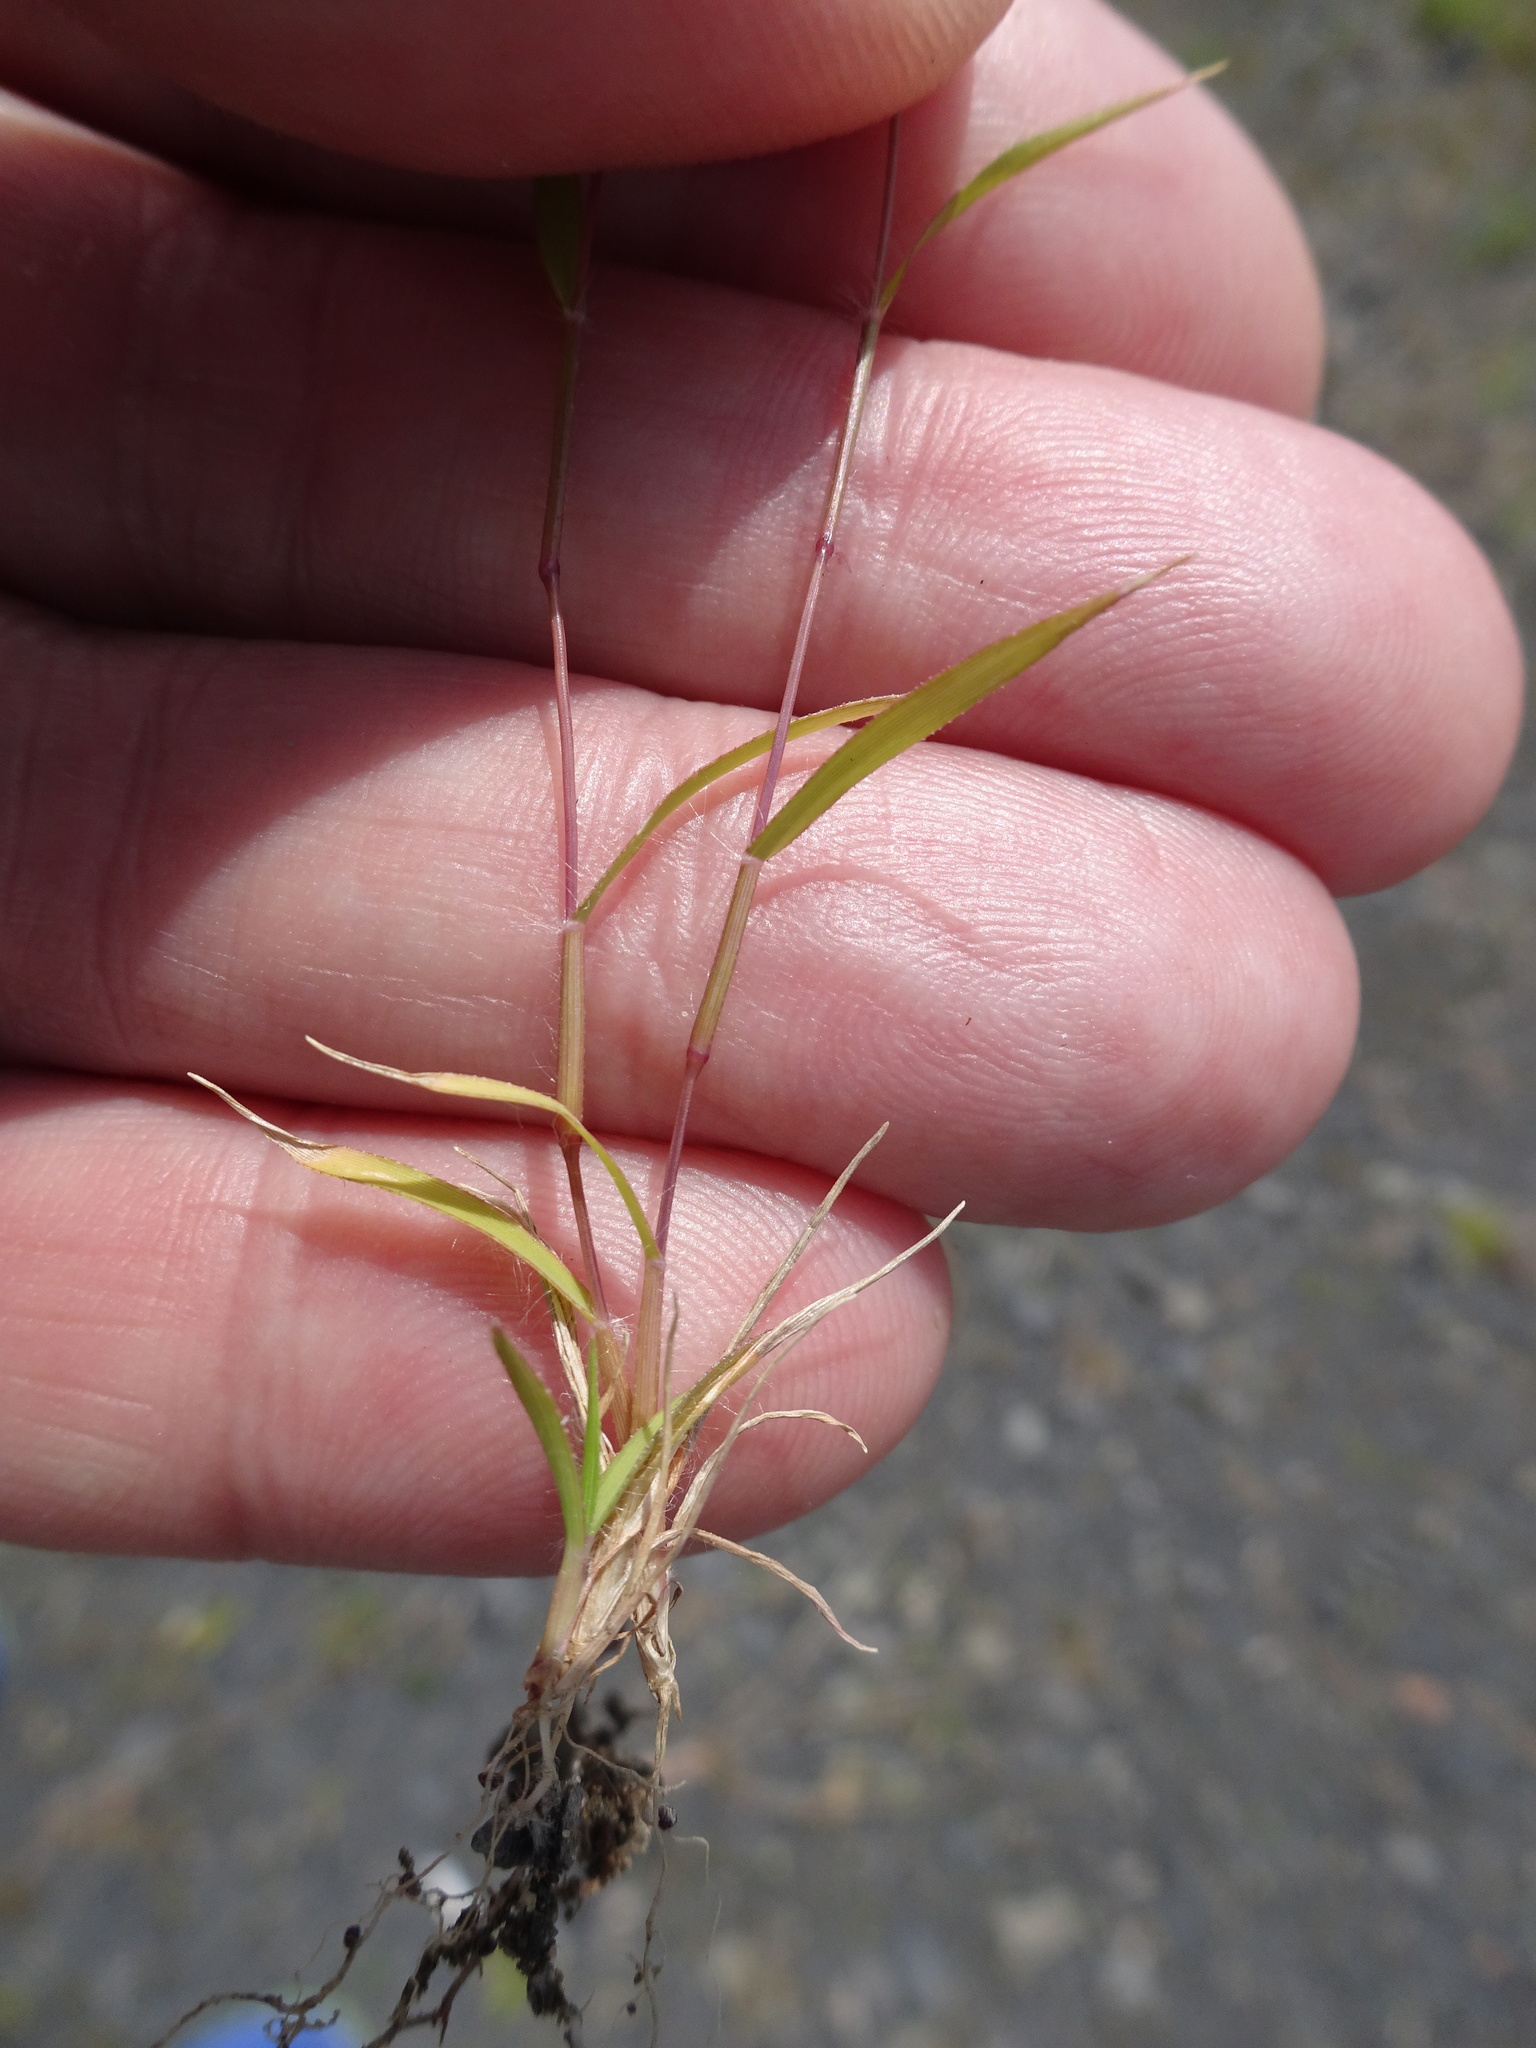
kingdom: Plantae
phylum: Tracheophyta
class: Liliopsida
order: Poales
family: Poaceae
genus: Eragrostis
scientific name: Eragrostis minor
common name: Small love-grass
